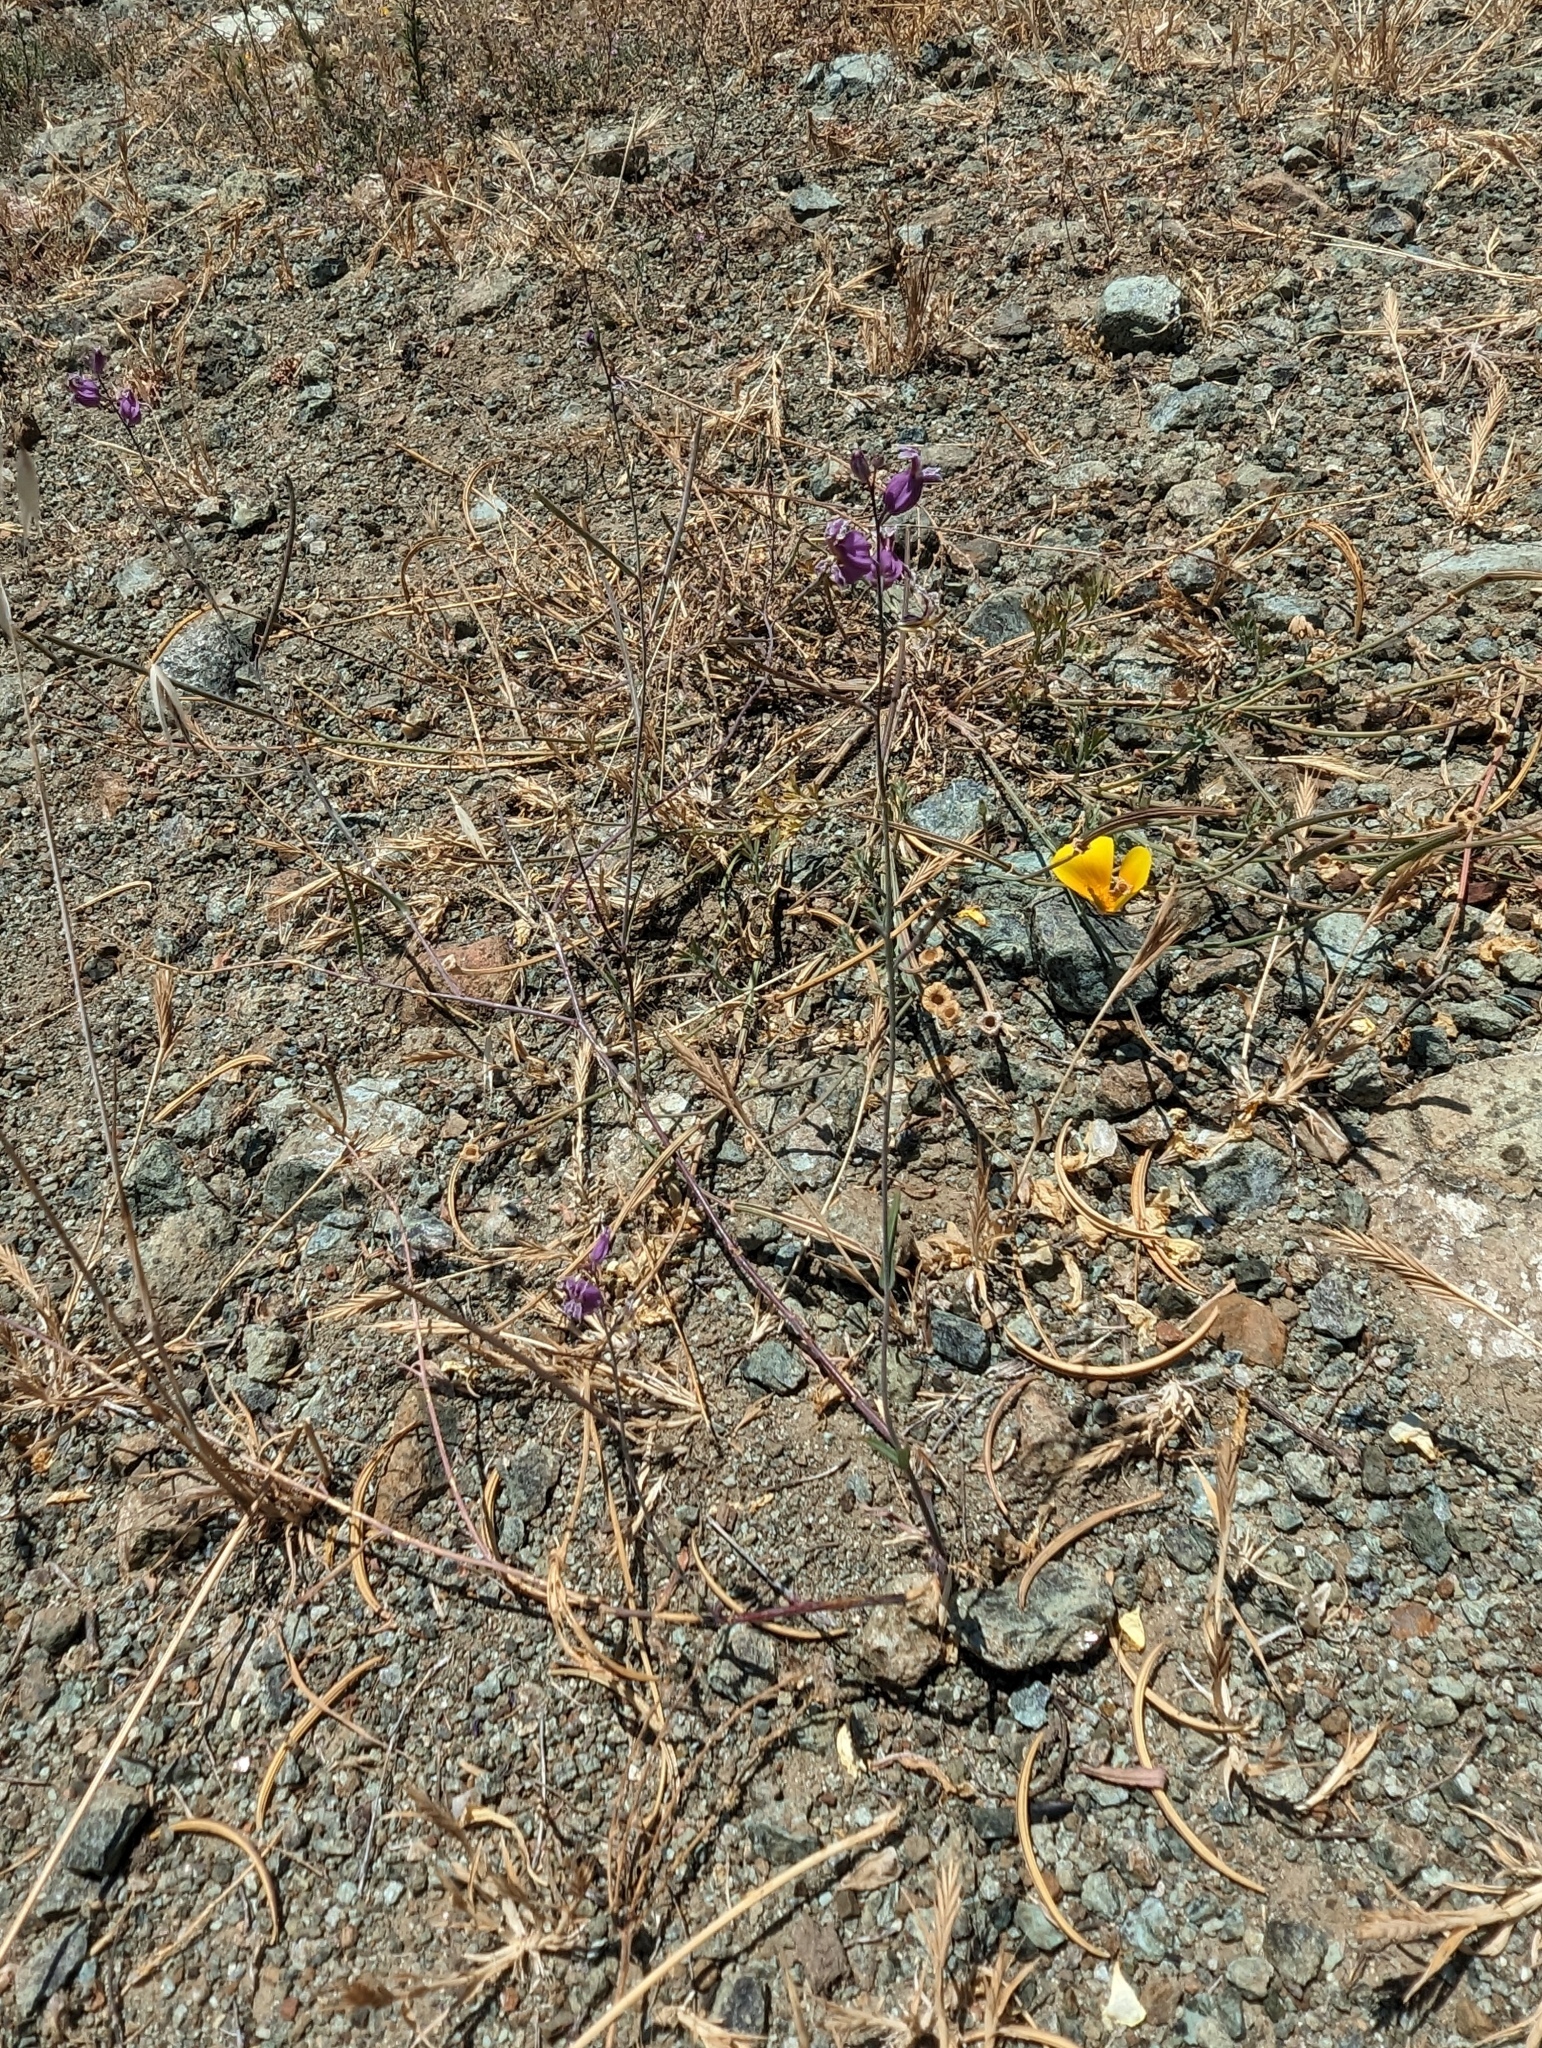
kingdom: Plantae
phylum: Tracheophyta
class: Magnoliopsida
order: Brassicales
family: Brassicaceae
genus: Streptanthus
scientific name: Streptanthus glandulosus
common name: Jewel-flower
